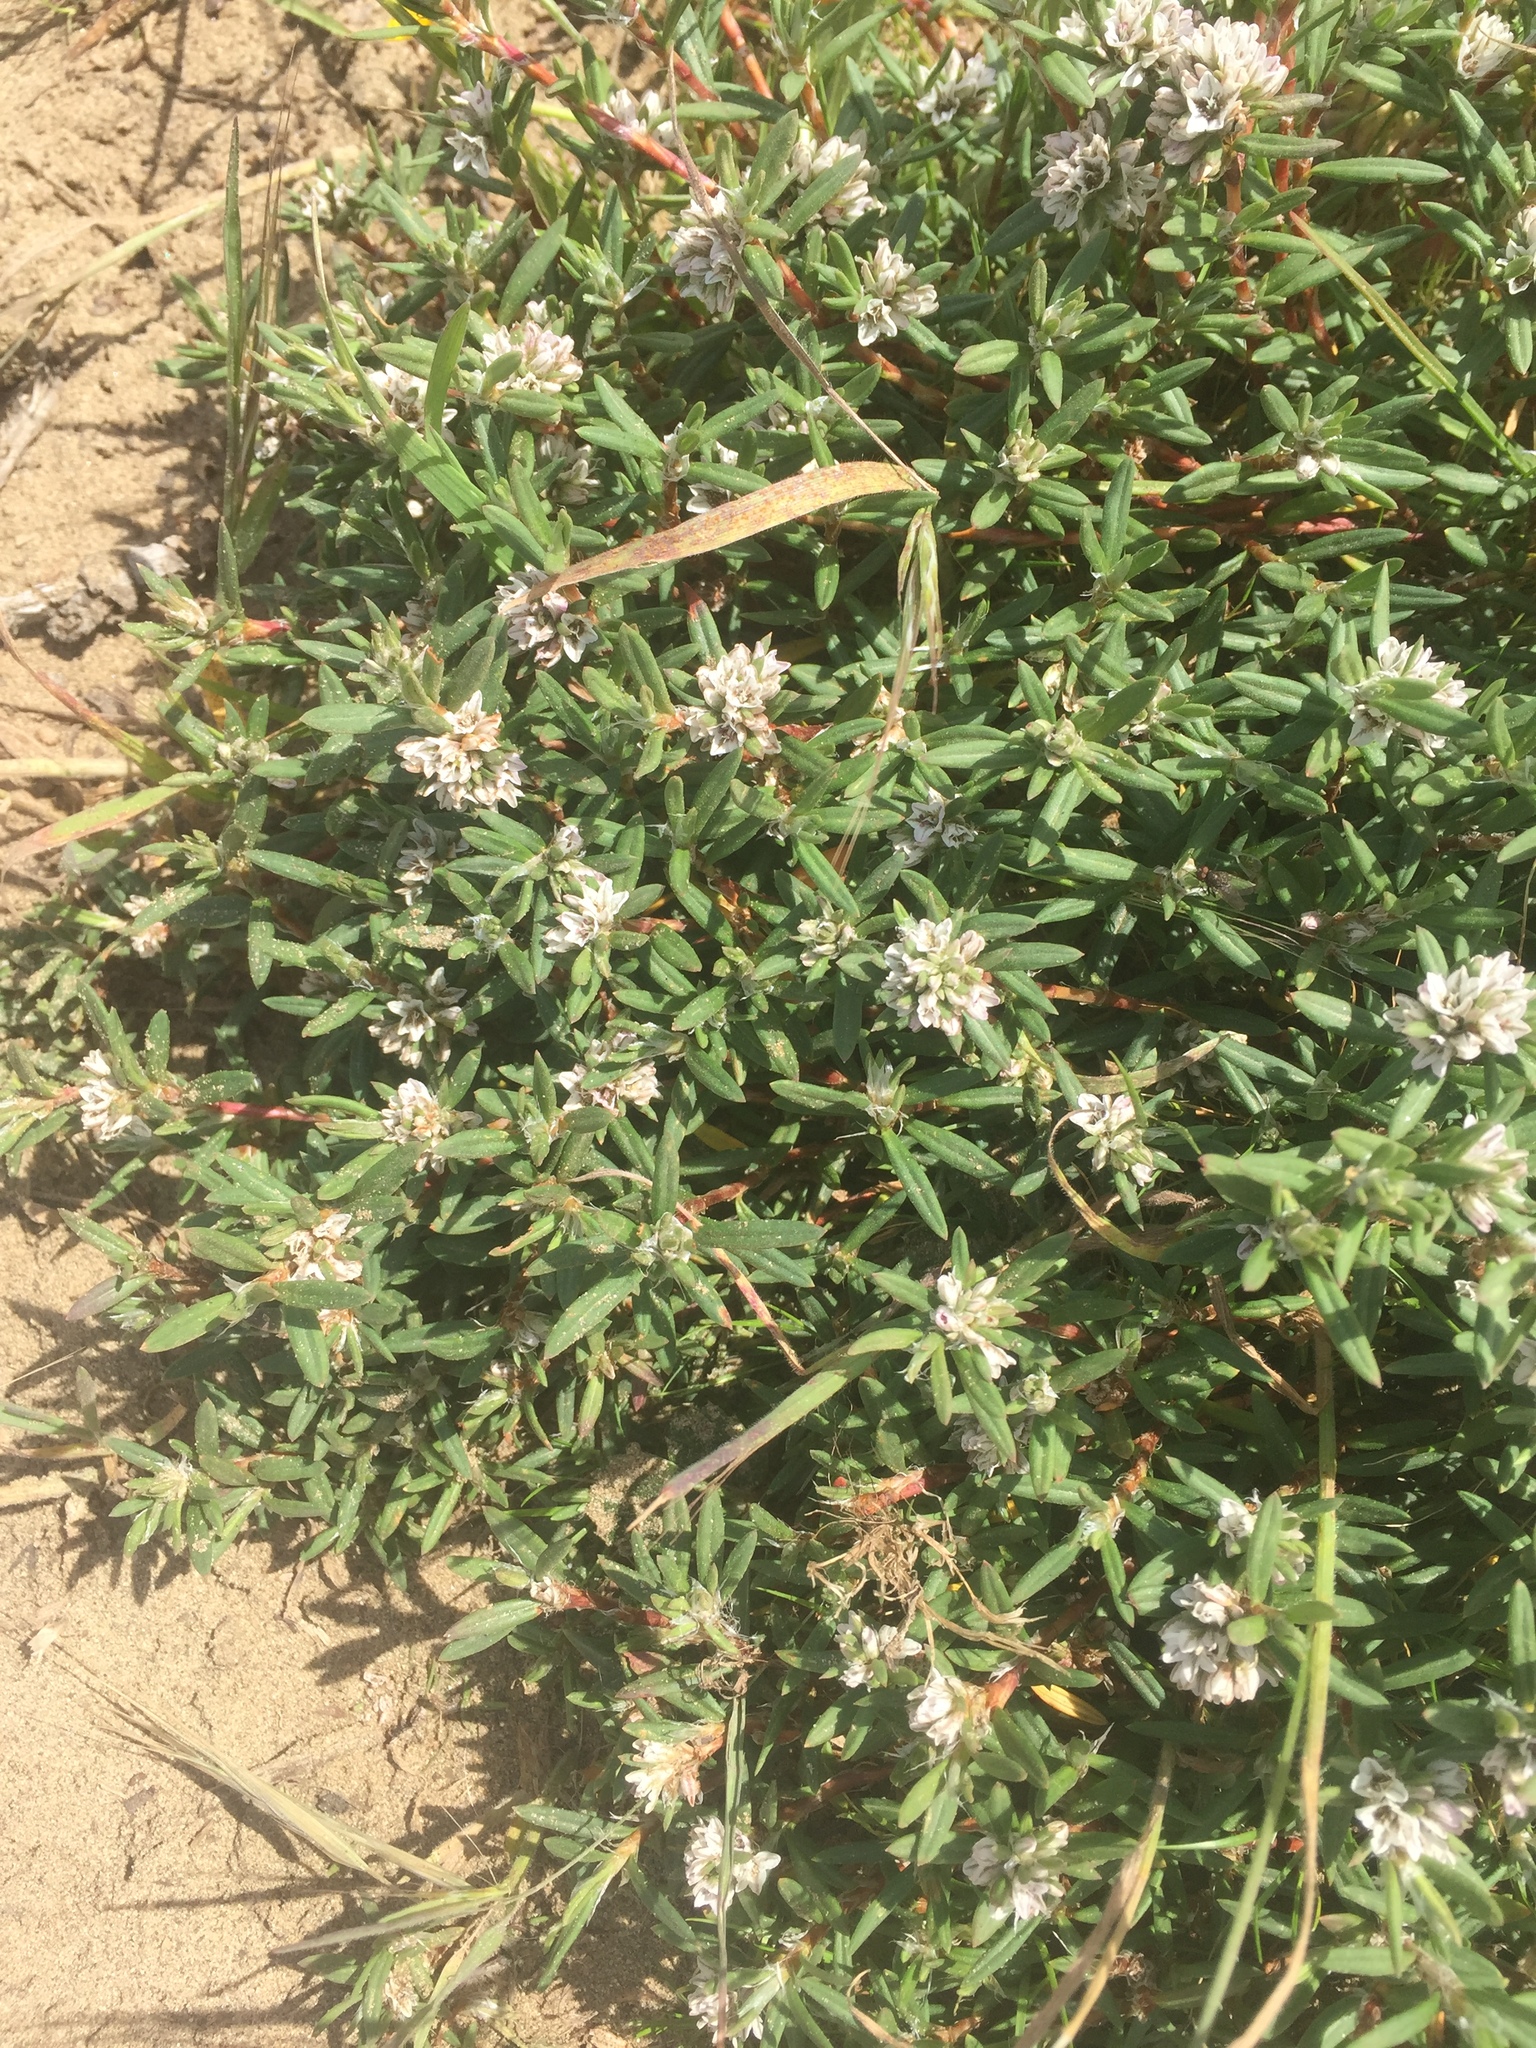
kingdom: Plantae
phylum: Tracheophyta
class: Magnoliopsida
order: Caryophyllales
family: Polygonaceae
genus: Polygonum
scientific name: Polygonum paronychia
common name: Dune knotweed
